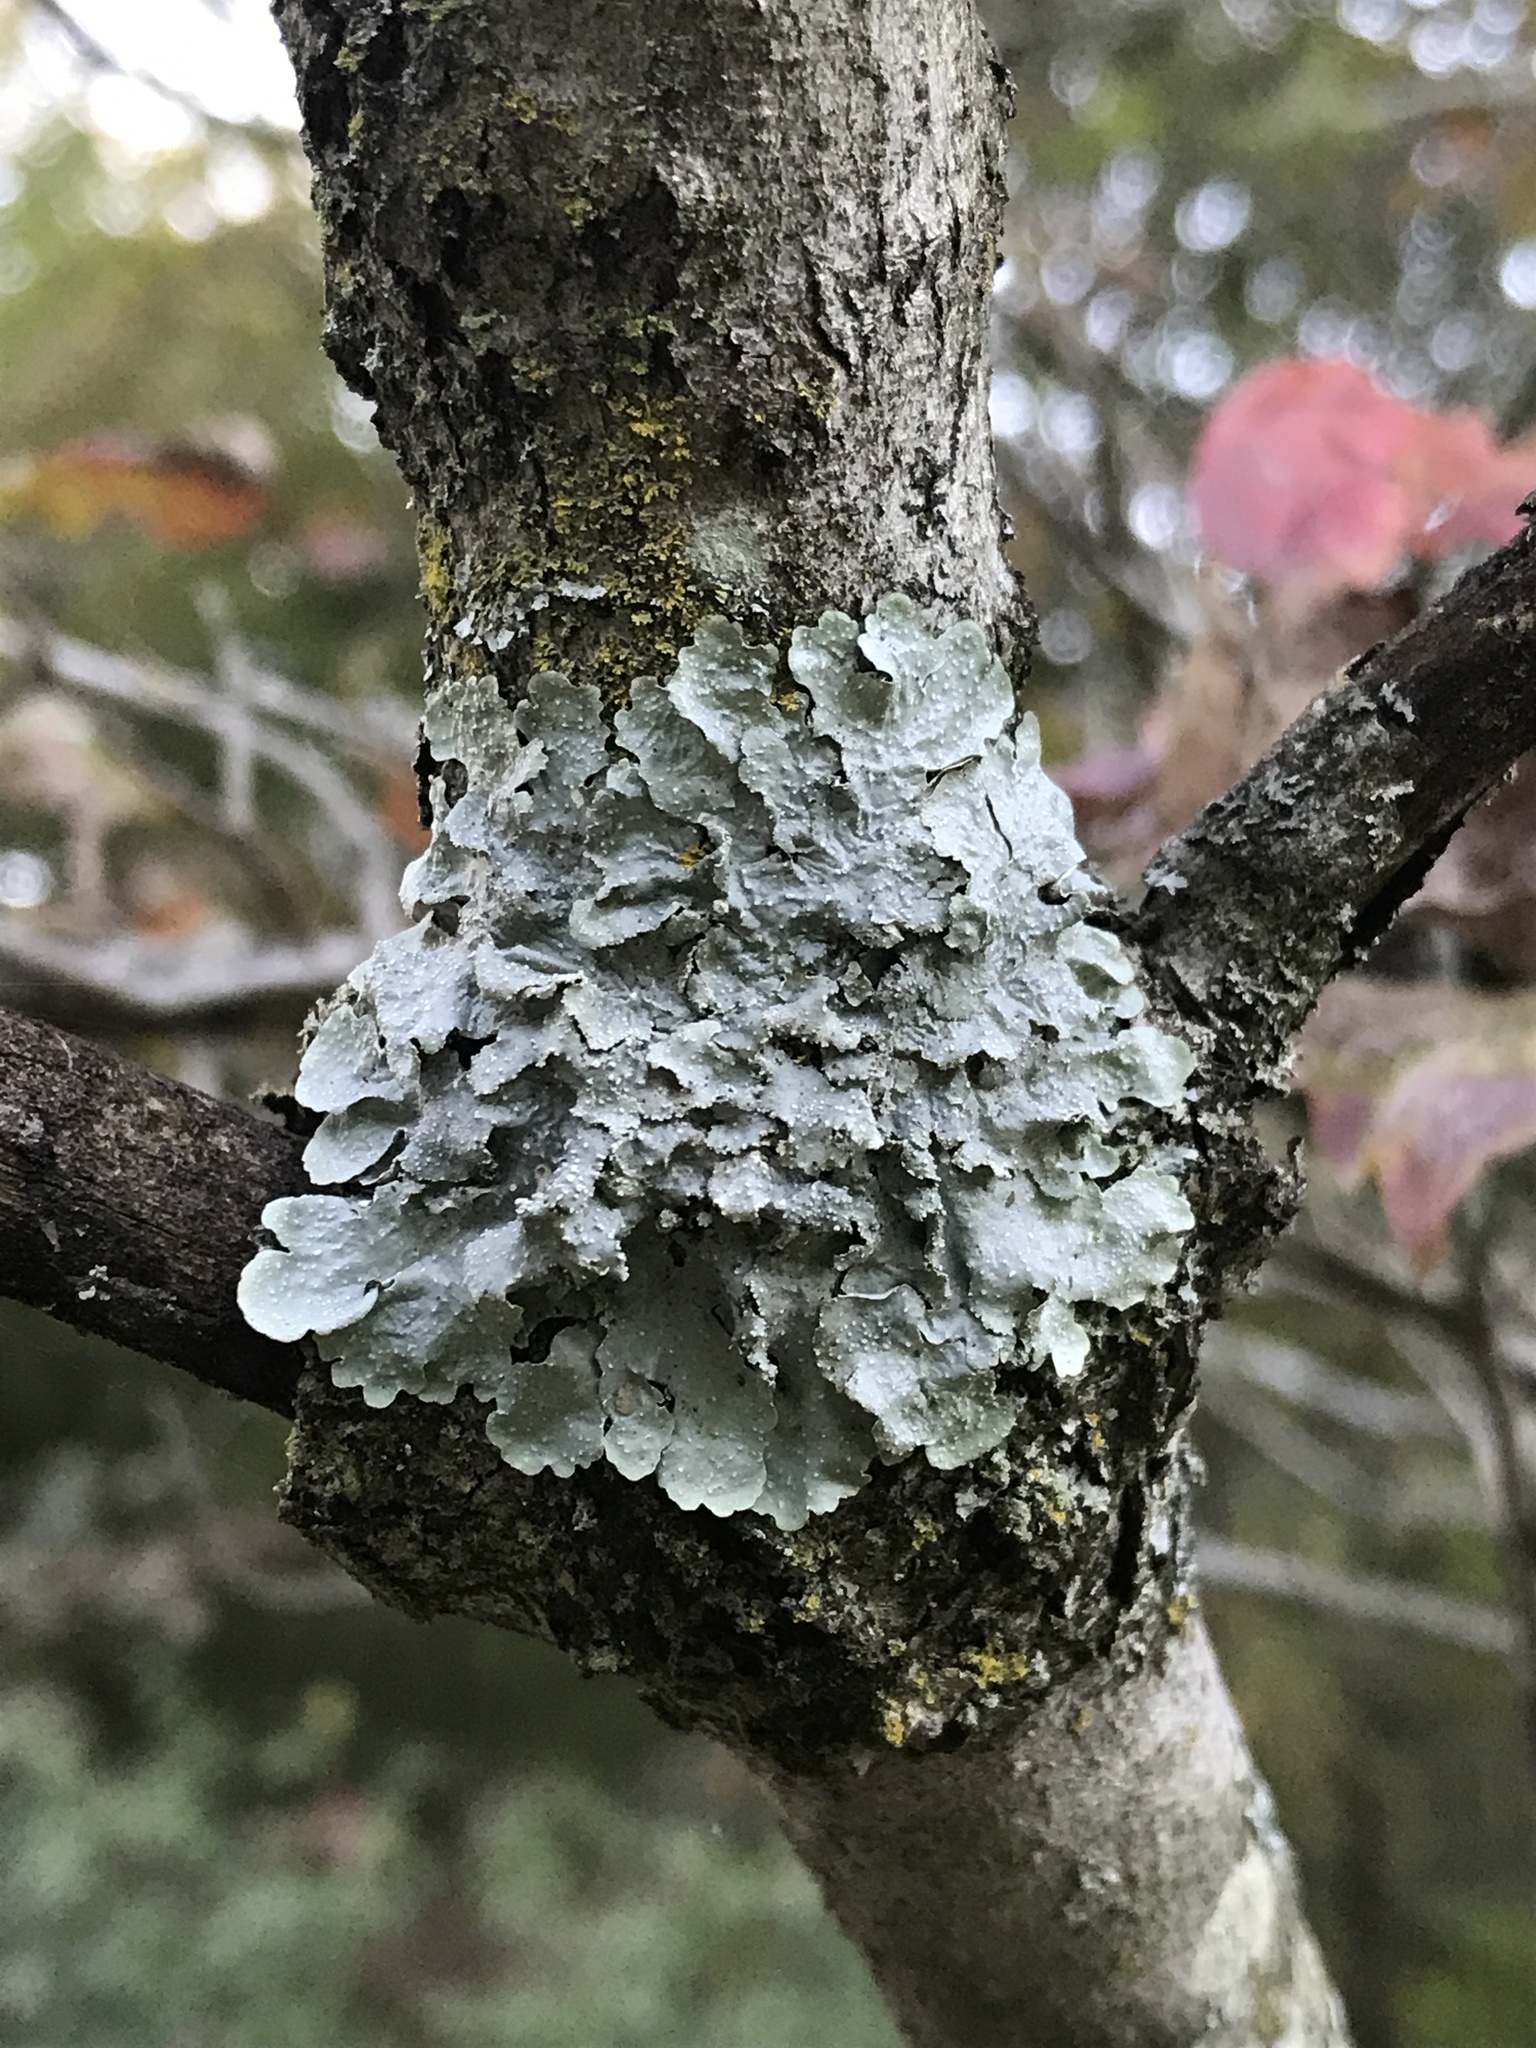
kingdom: Fungi
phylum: Ascomycota
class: Lecanoromycetes
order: Lecanorales
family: Parmeliaceae
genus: Flavoparmelia
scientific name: Flavoparmelia caperata
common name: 40-mile per hour lichen
